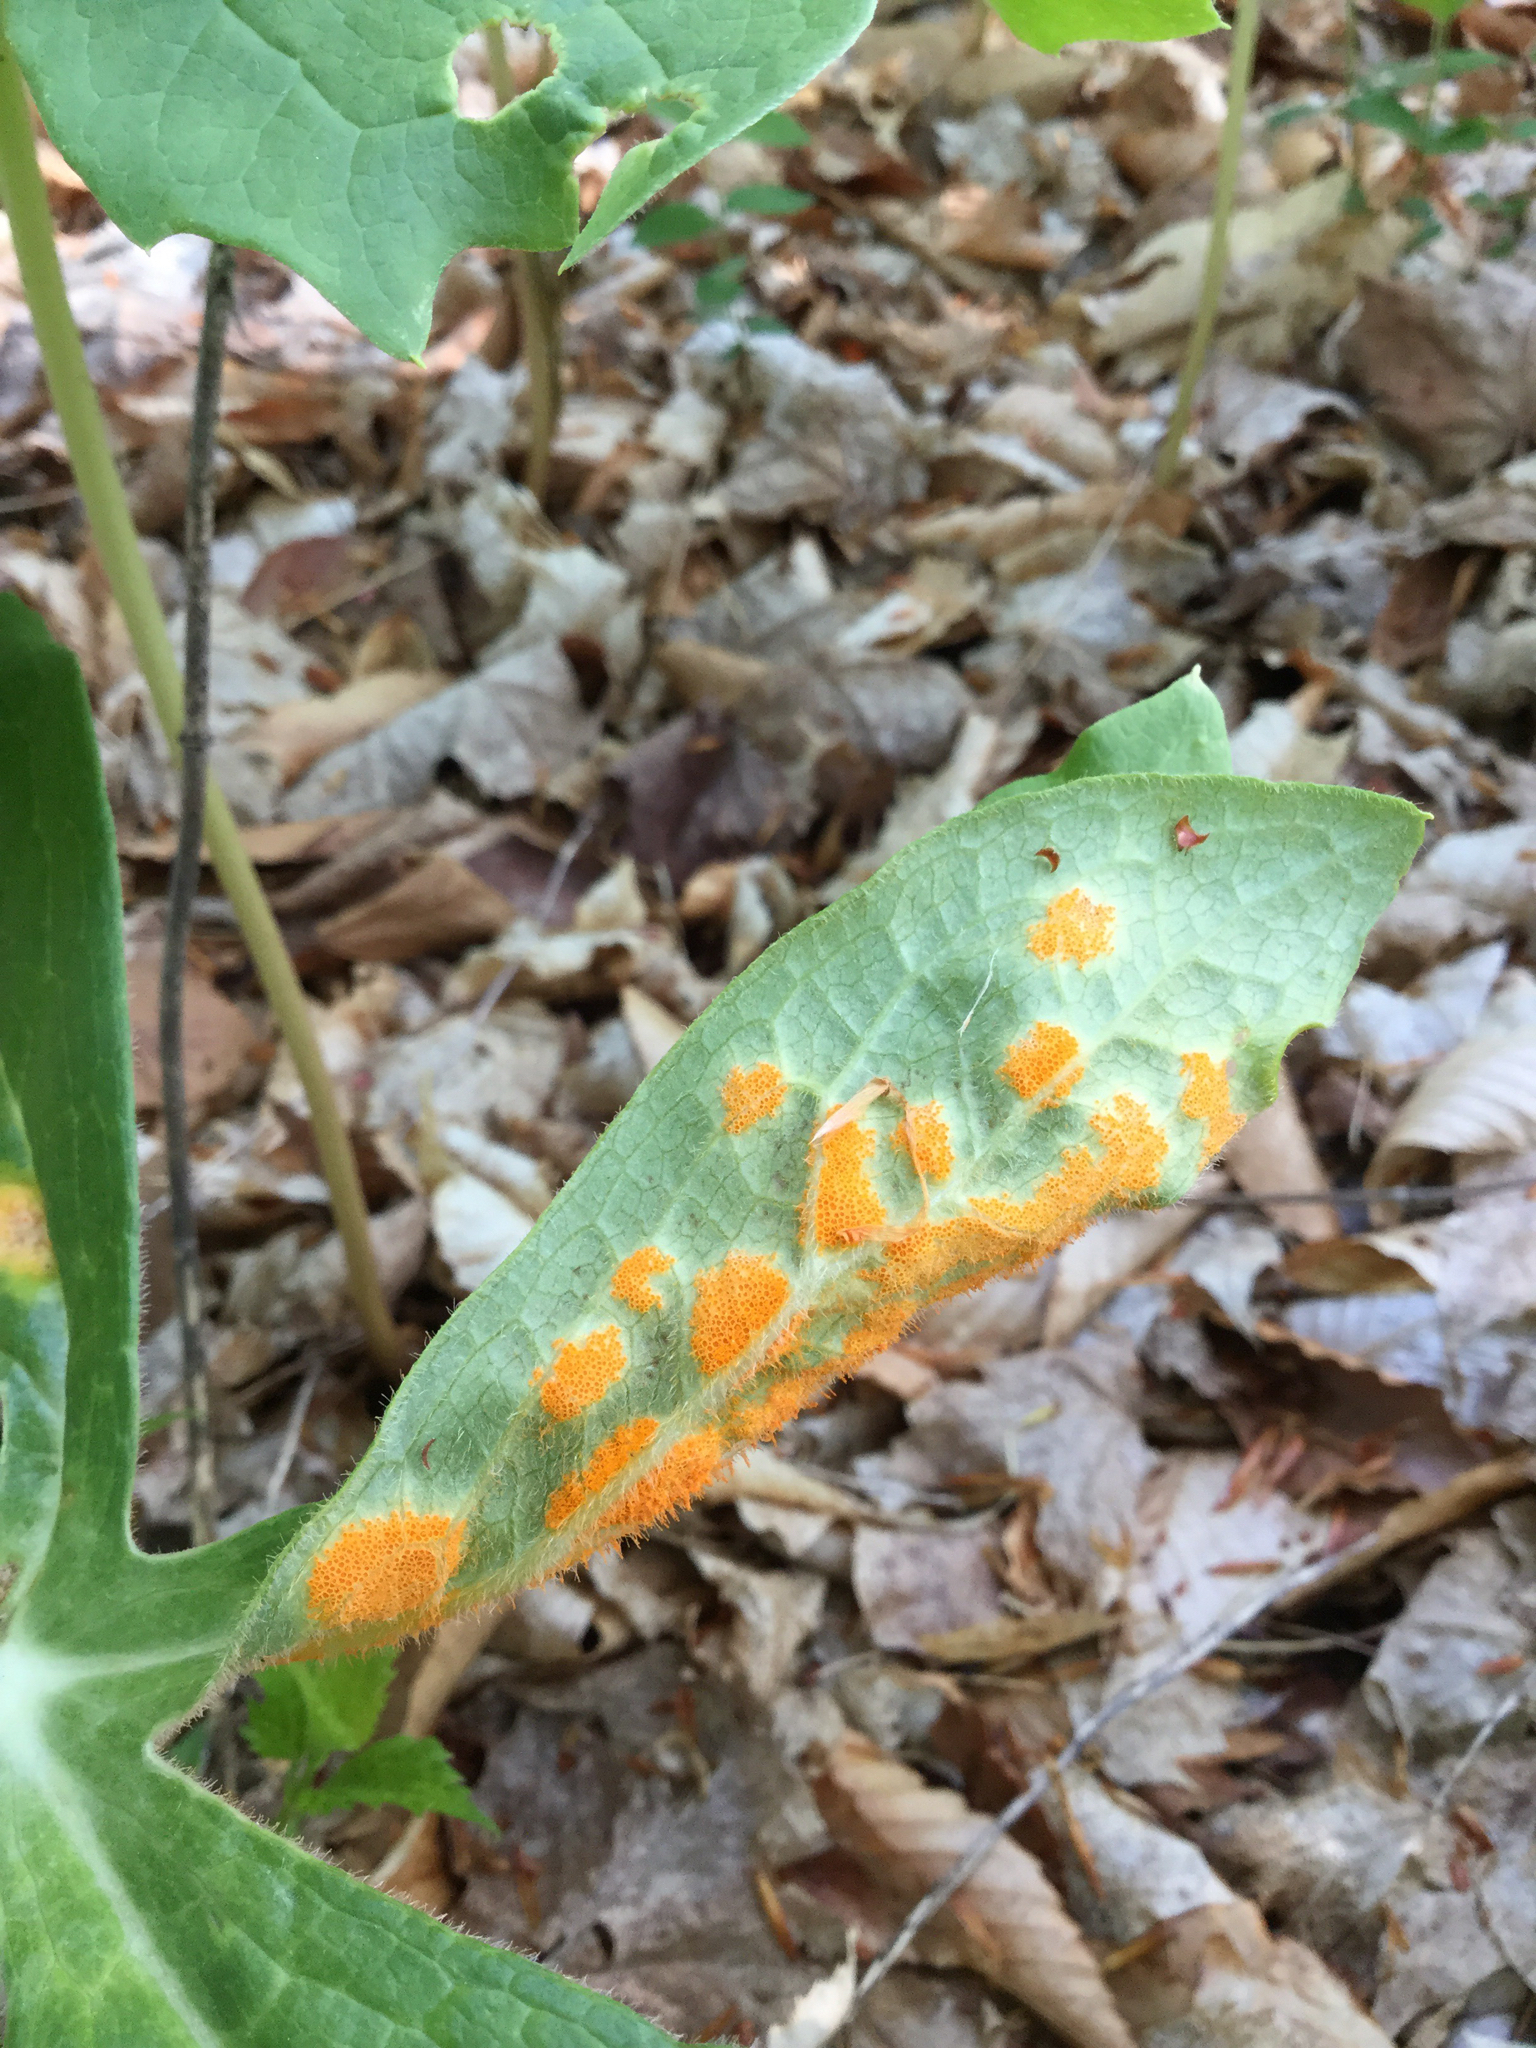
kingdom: Fungi
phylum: Basidiomycota
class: Pucciniomycetes
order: Pucciniales
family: Pucciniaceae
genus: Puccinia
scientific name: Puccinia podophylli
